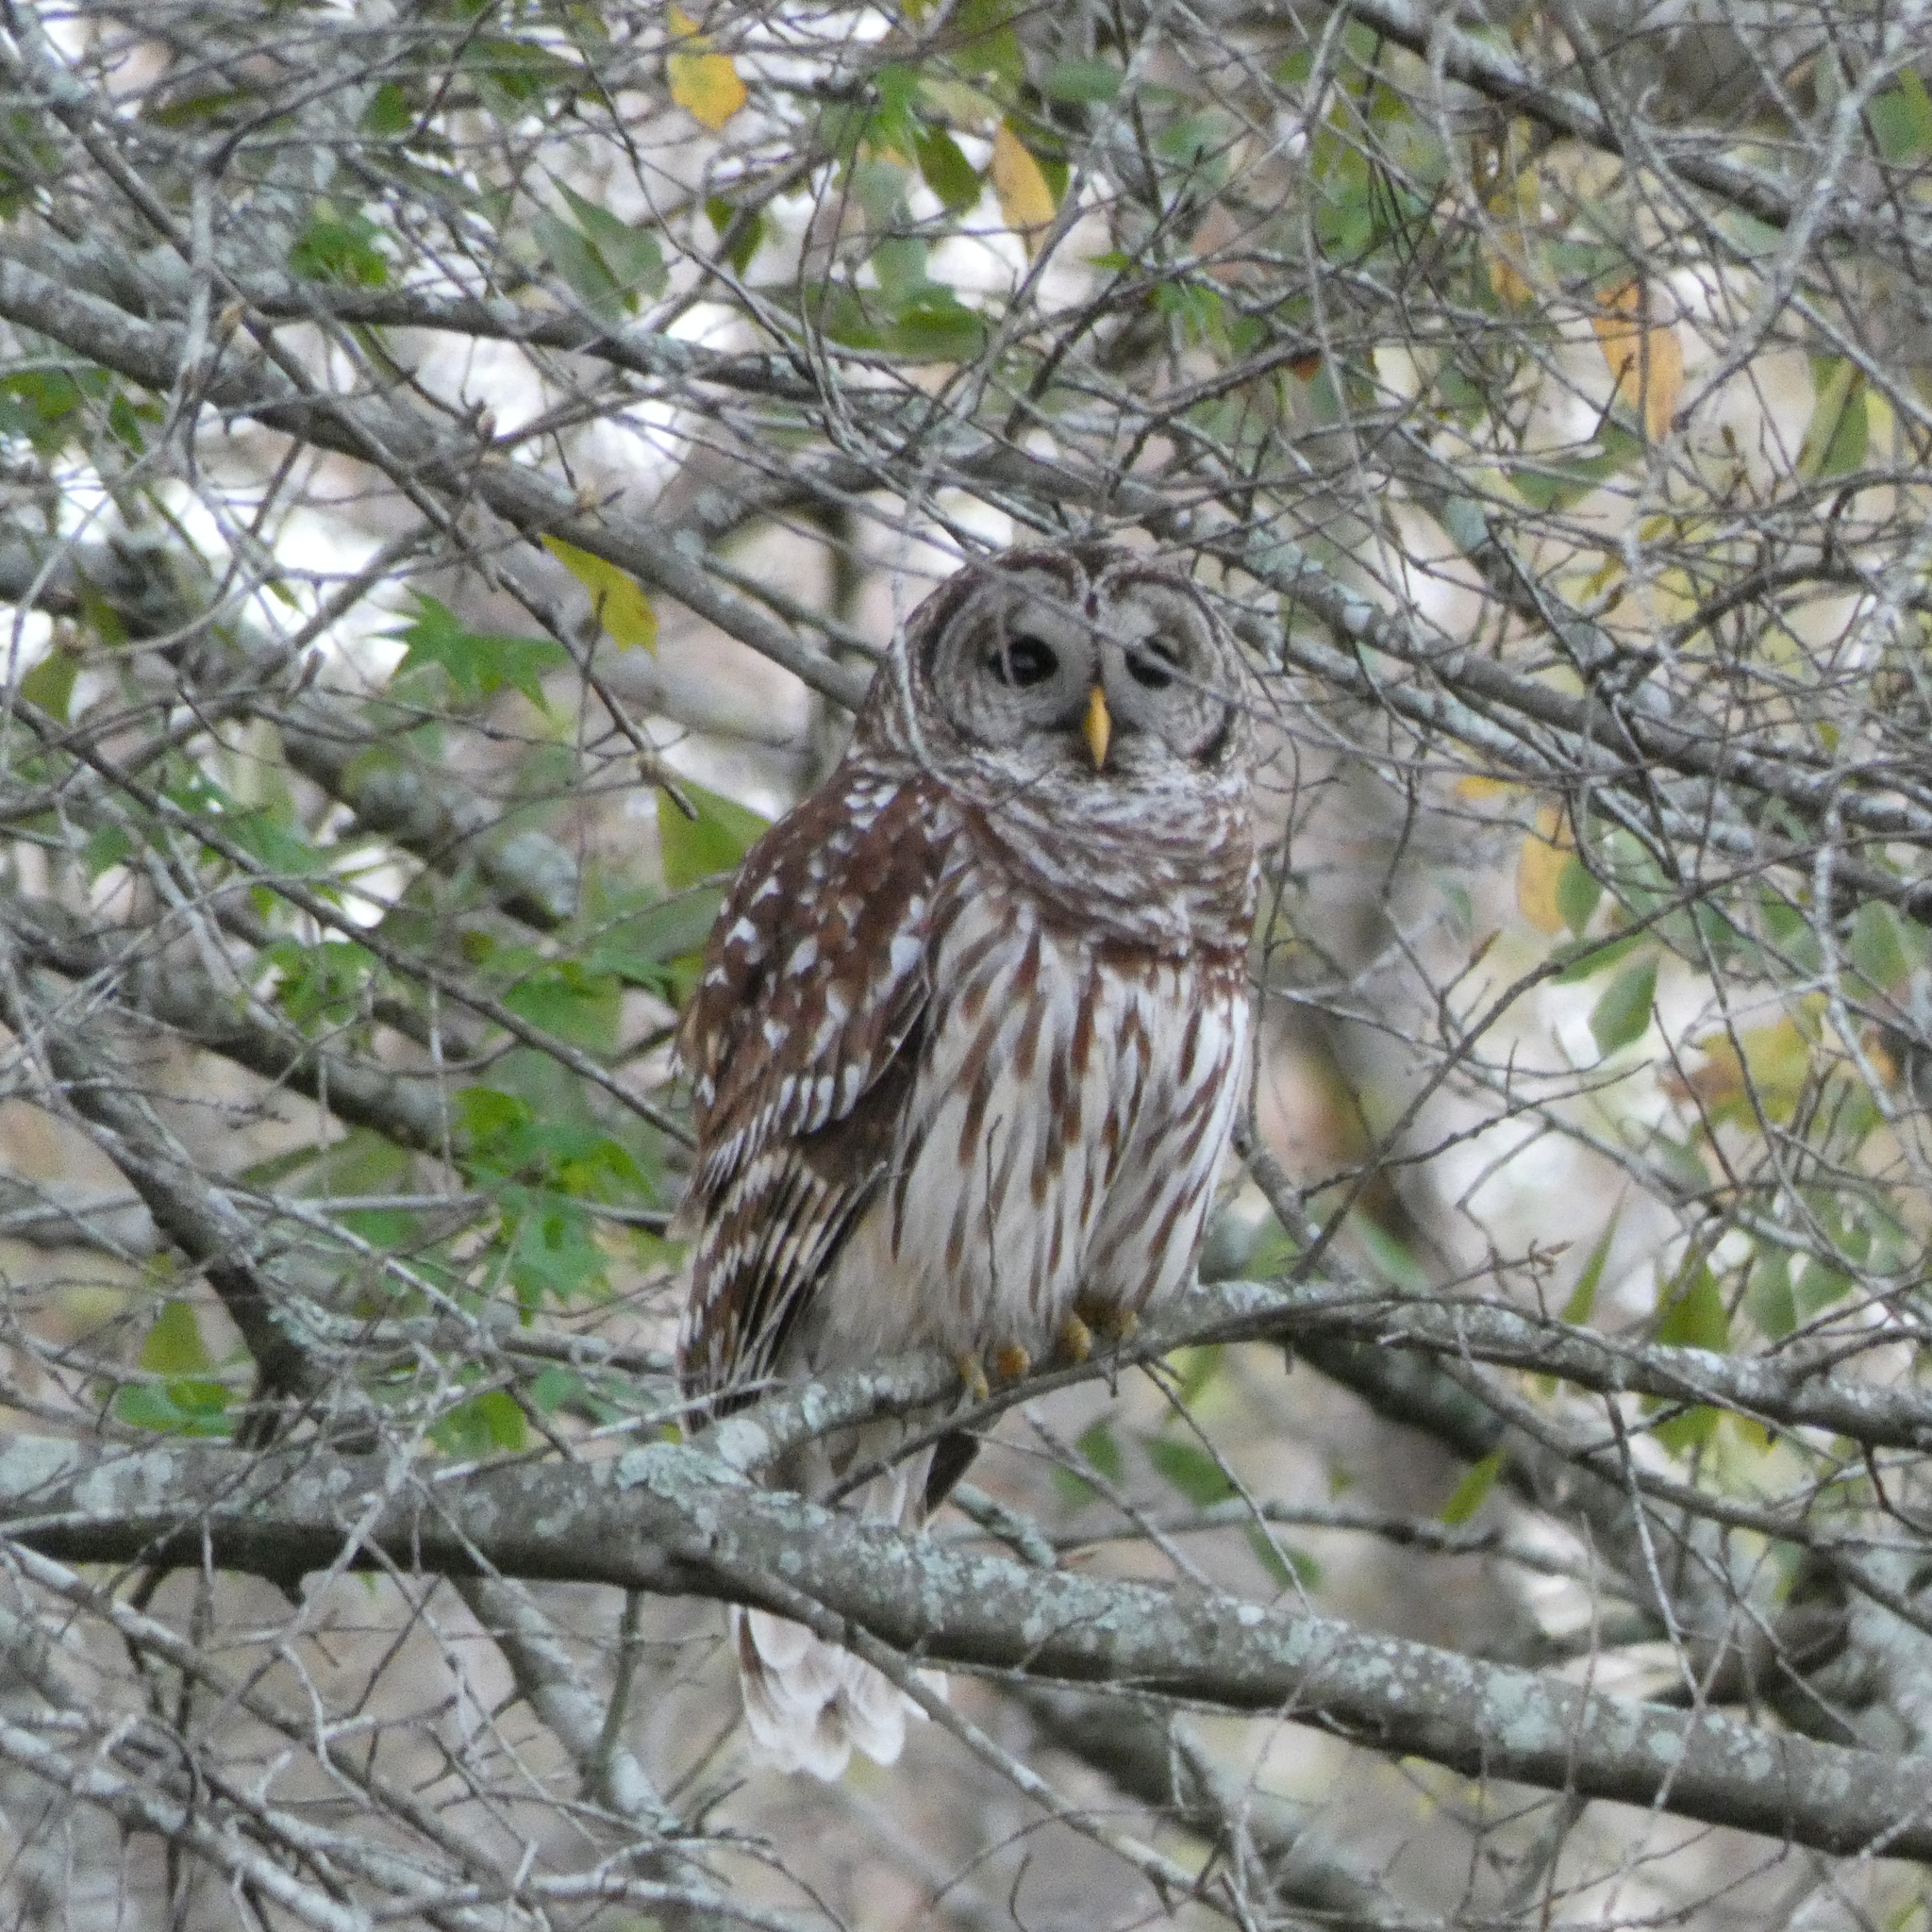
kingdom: Animalia
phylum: Chordata
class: Aves
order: Strigiformes
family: Strigidae
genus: Strix
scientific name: Strix varia
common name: Barred owl
